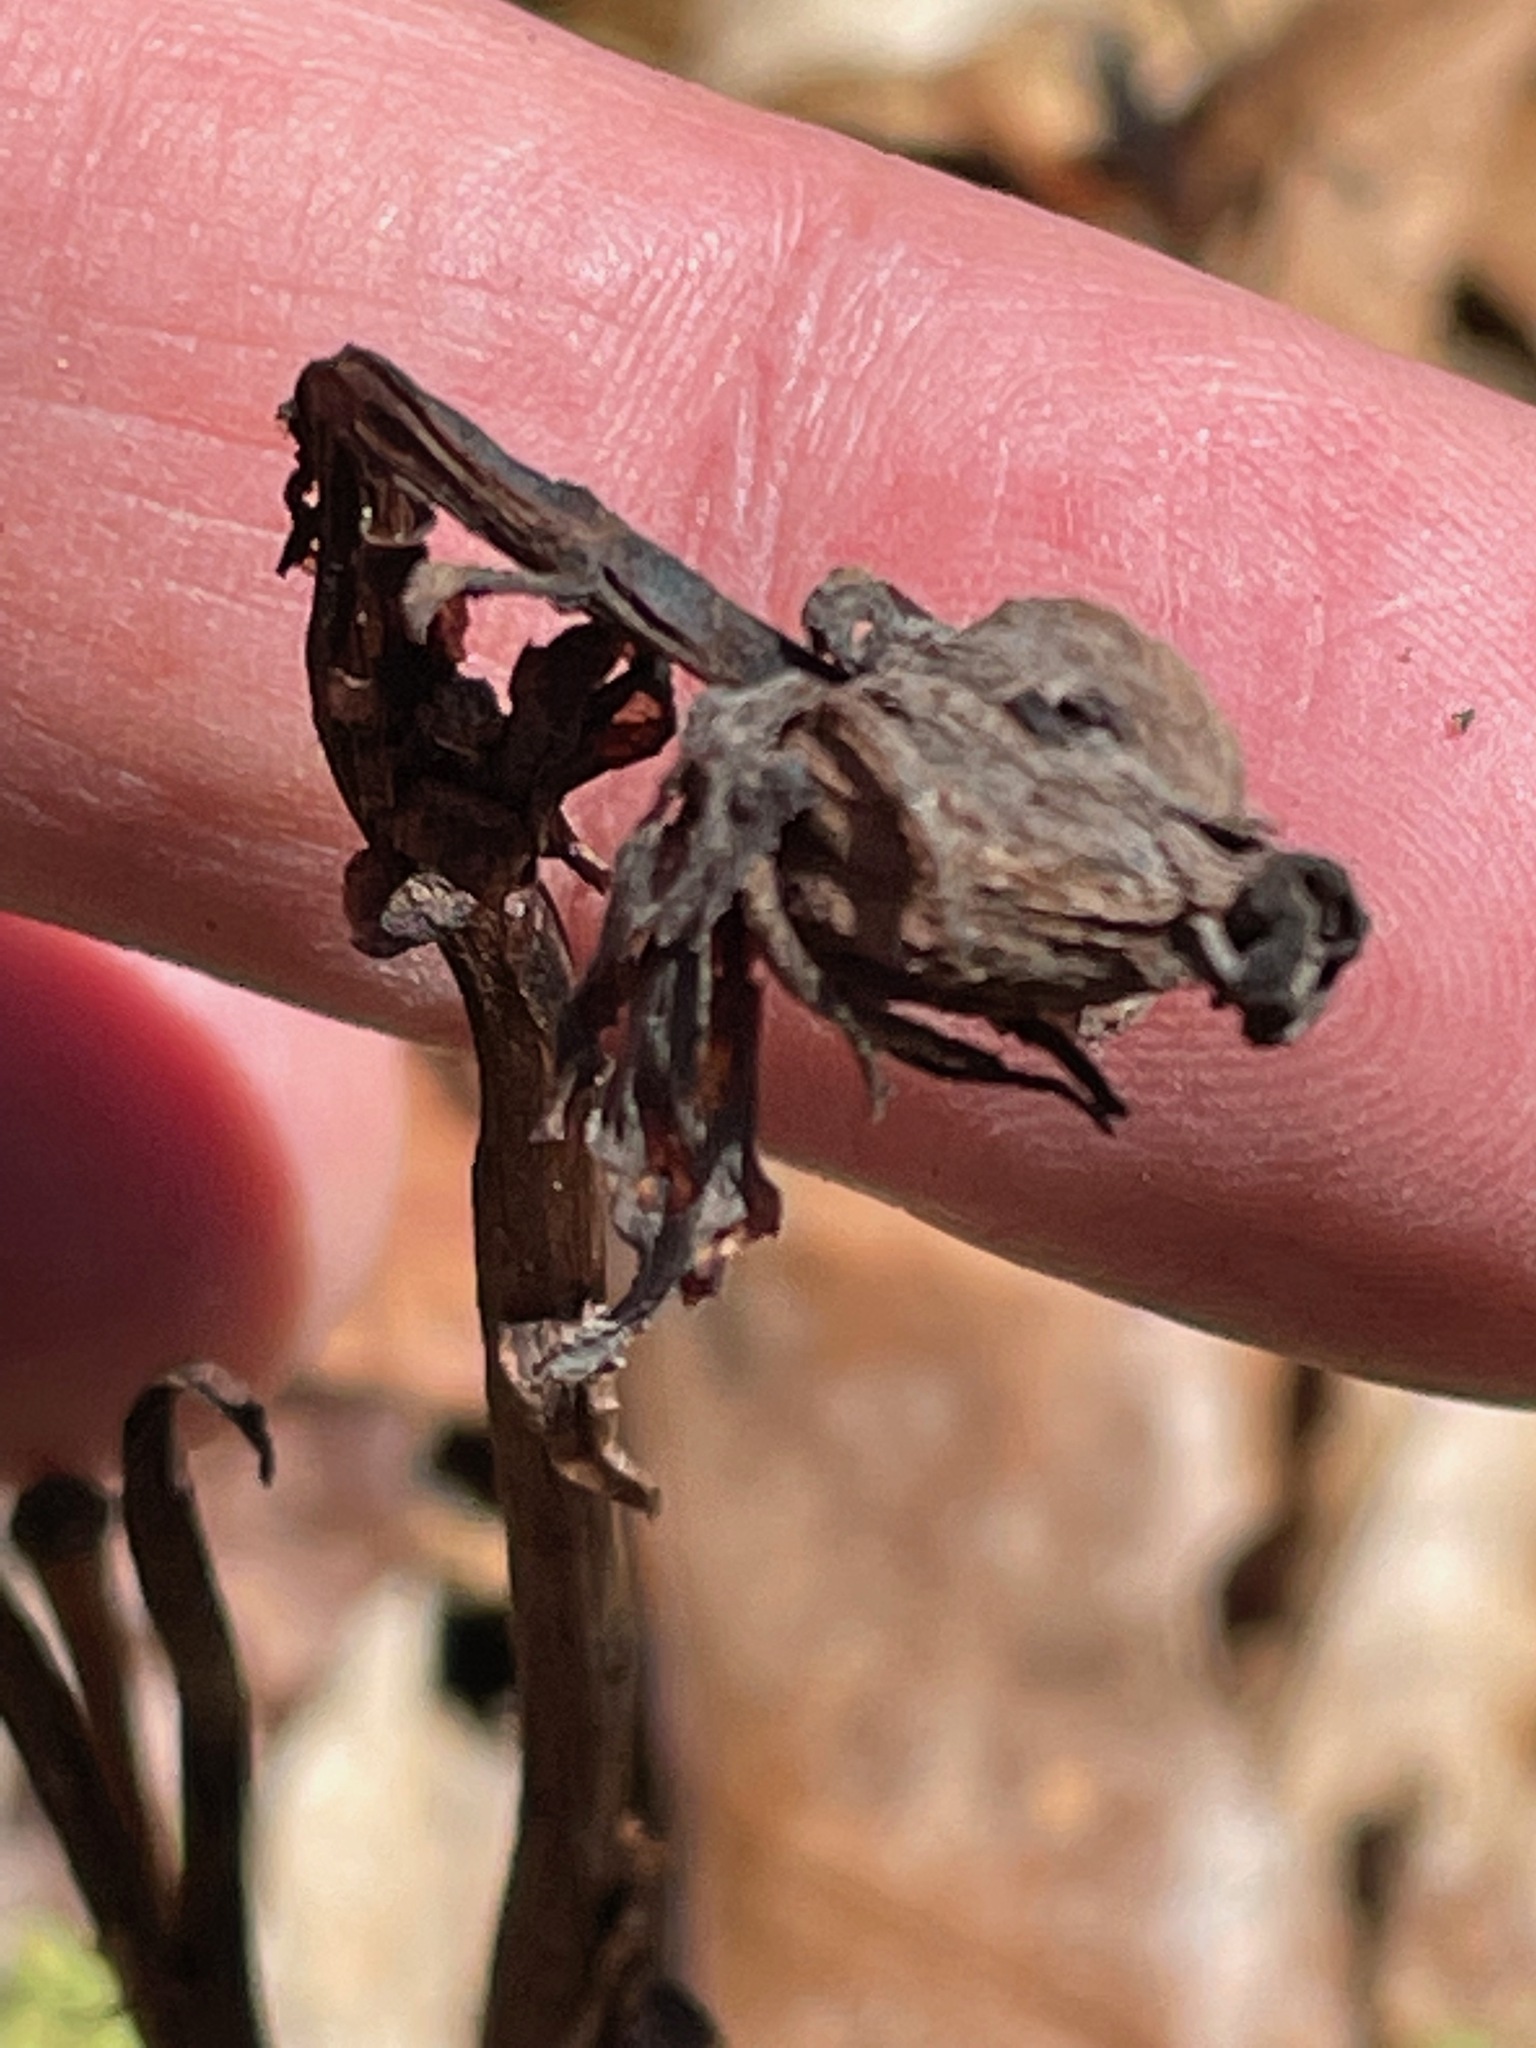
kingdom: Plantae
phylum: Tracheophyta
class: Magnoliopsida
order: Ericales
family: Ericaceae
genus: Monotropa
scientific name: Monotropa uniflora
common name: Convulsion root
